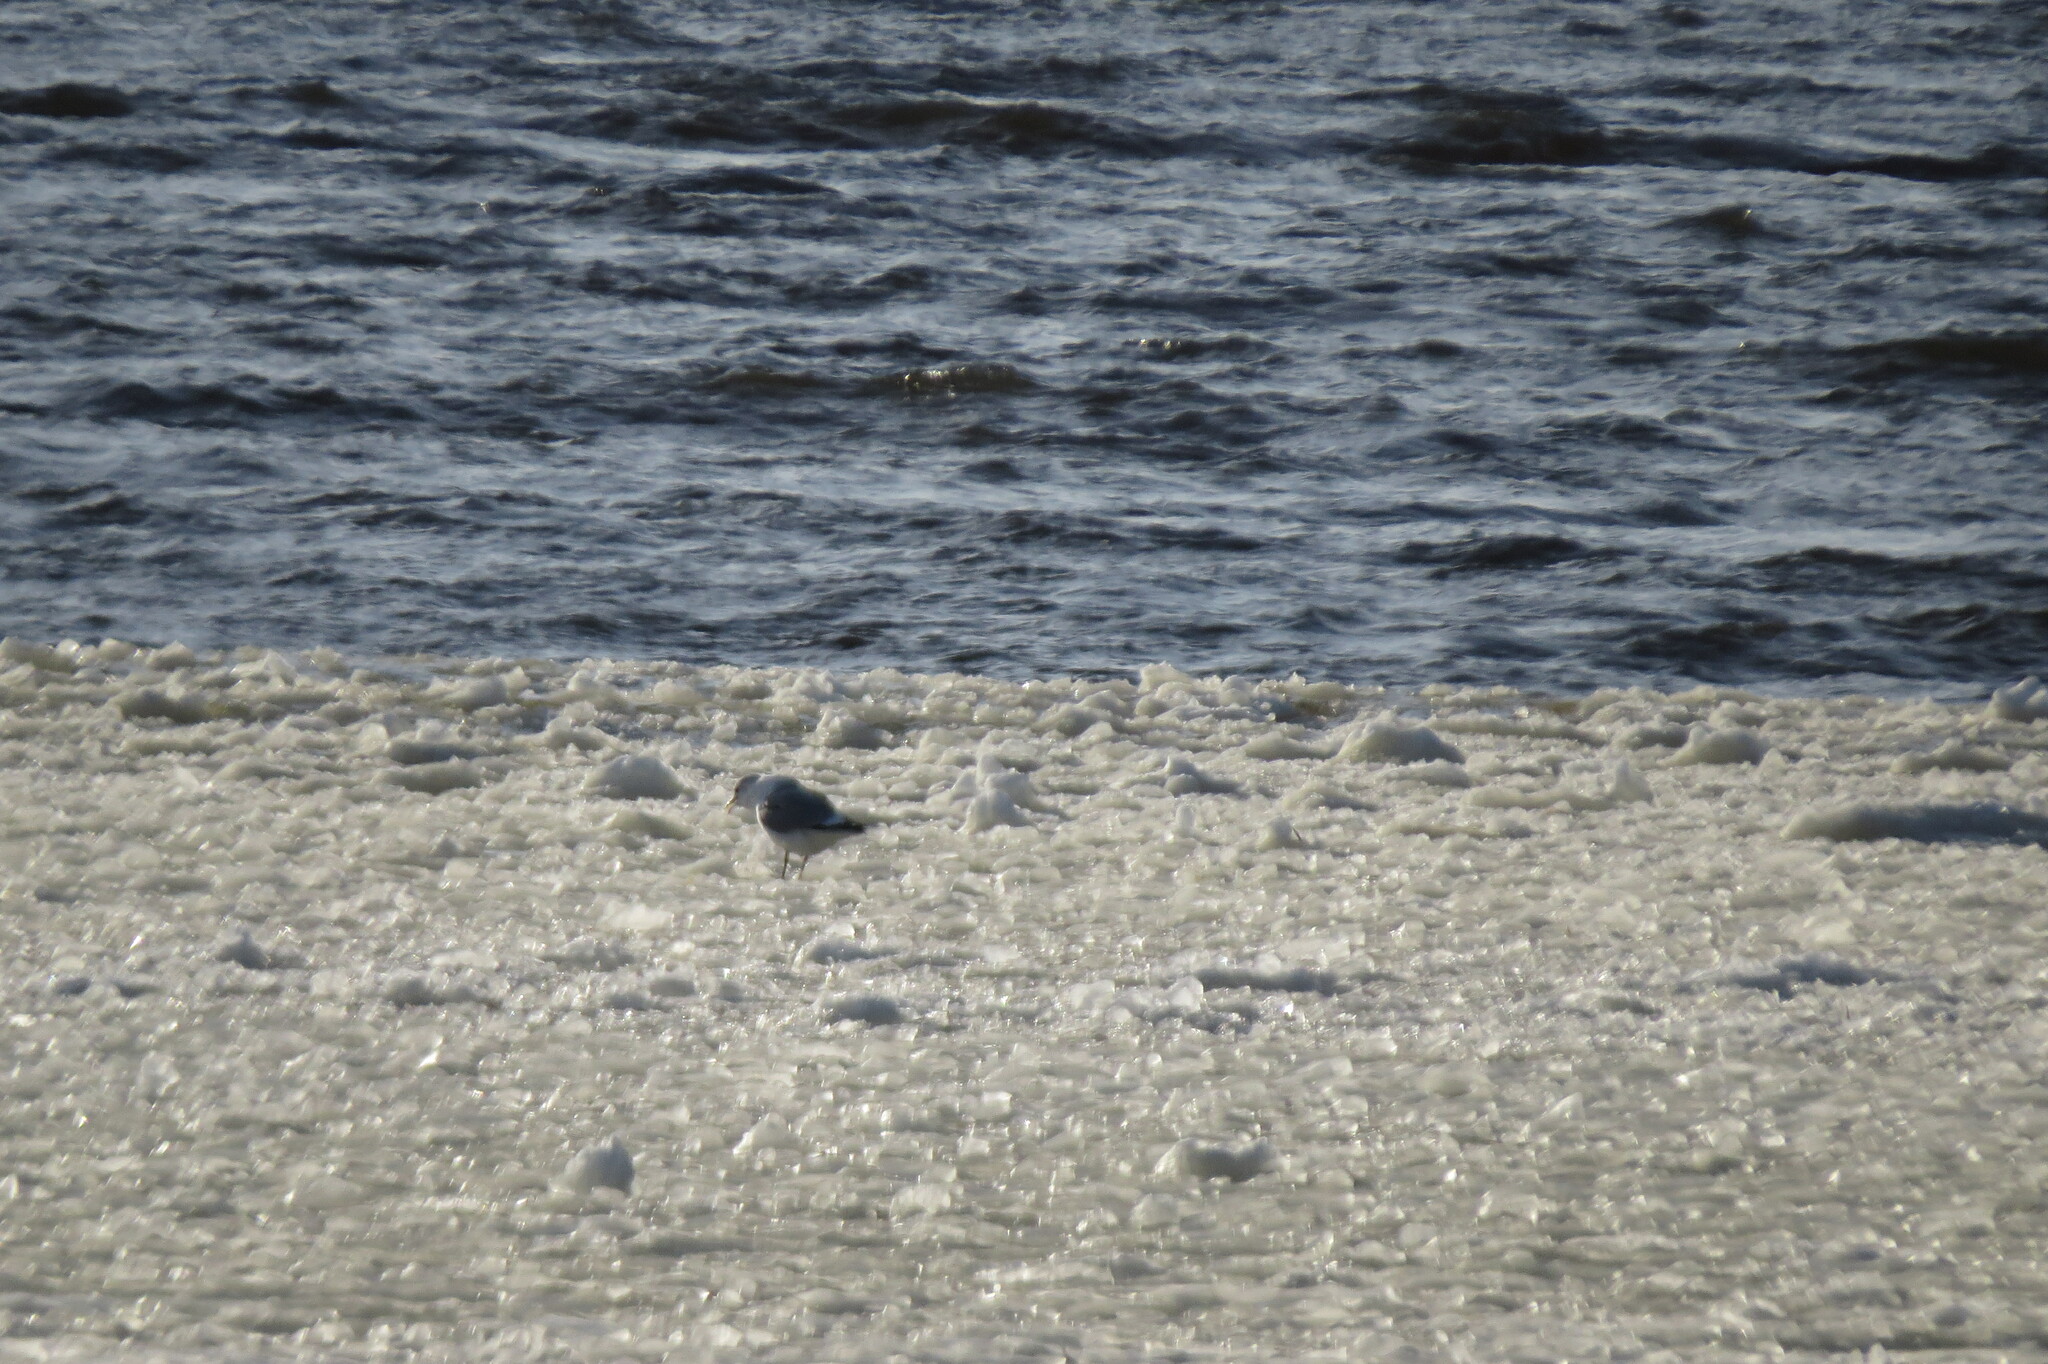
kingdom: Animalia
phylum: Chordata
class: Aves
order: Charadriiformes
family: Laridae
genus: Larus
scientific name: Larus canus
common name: Mew gull
